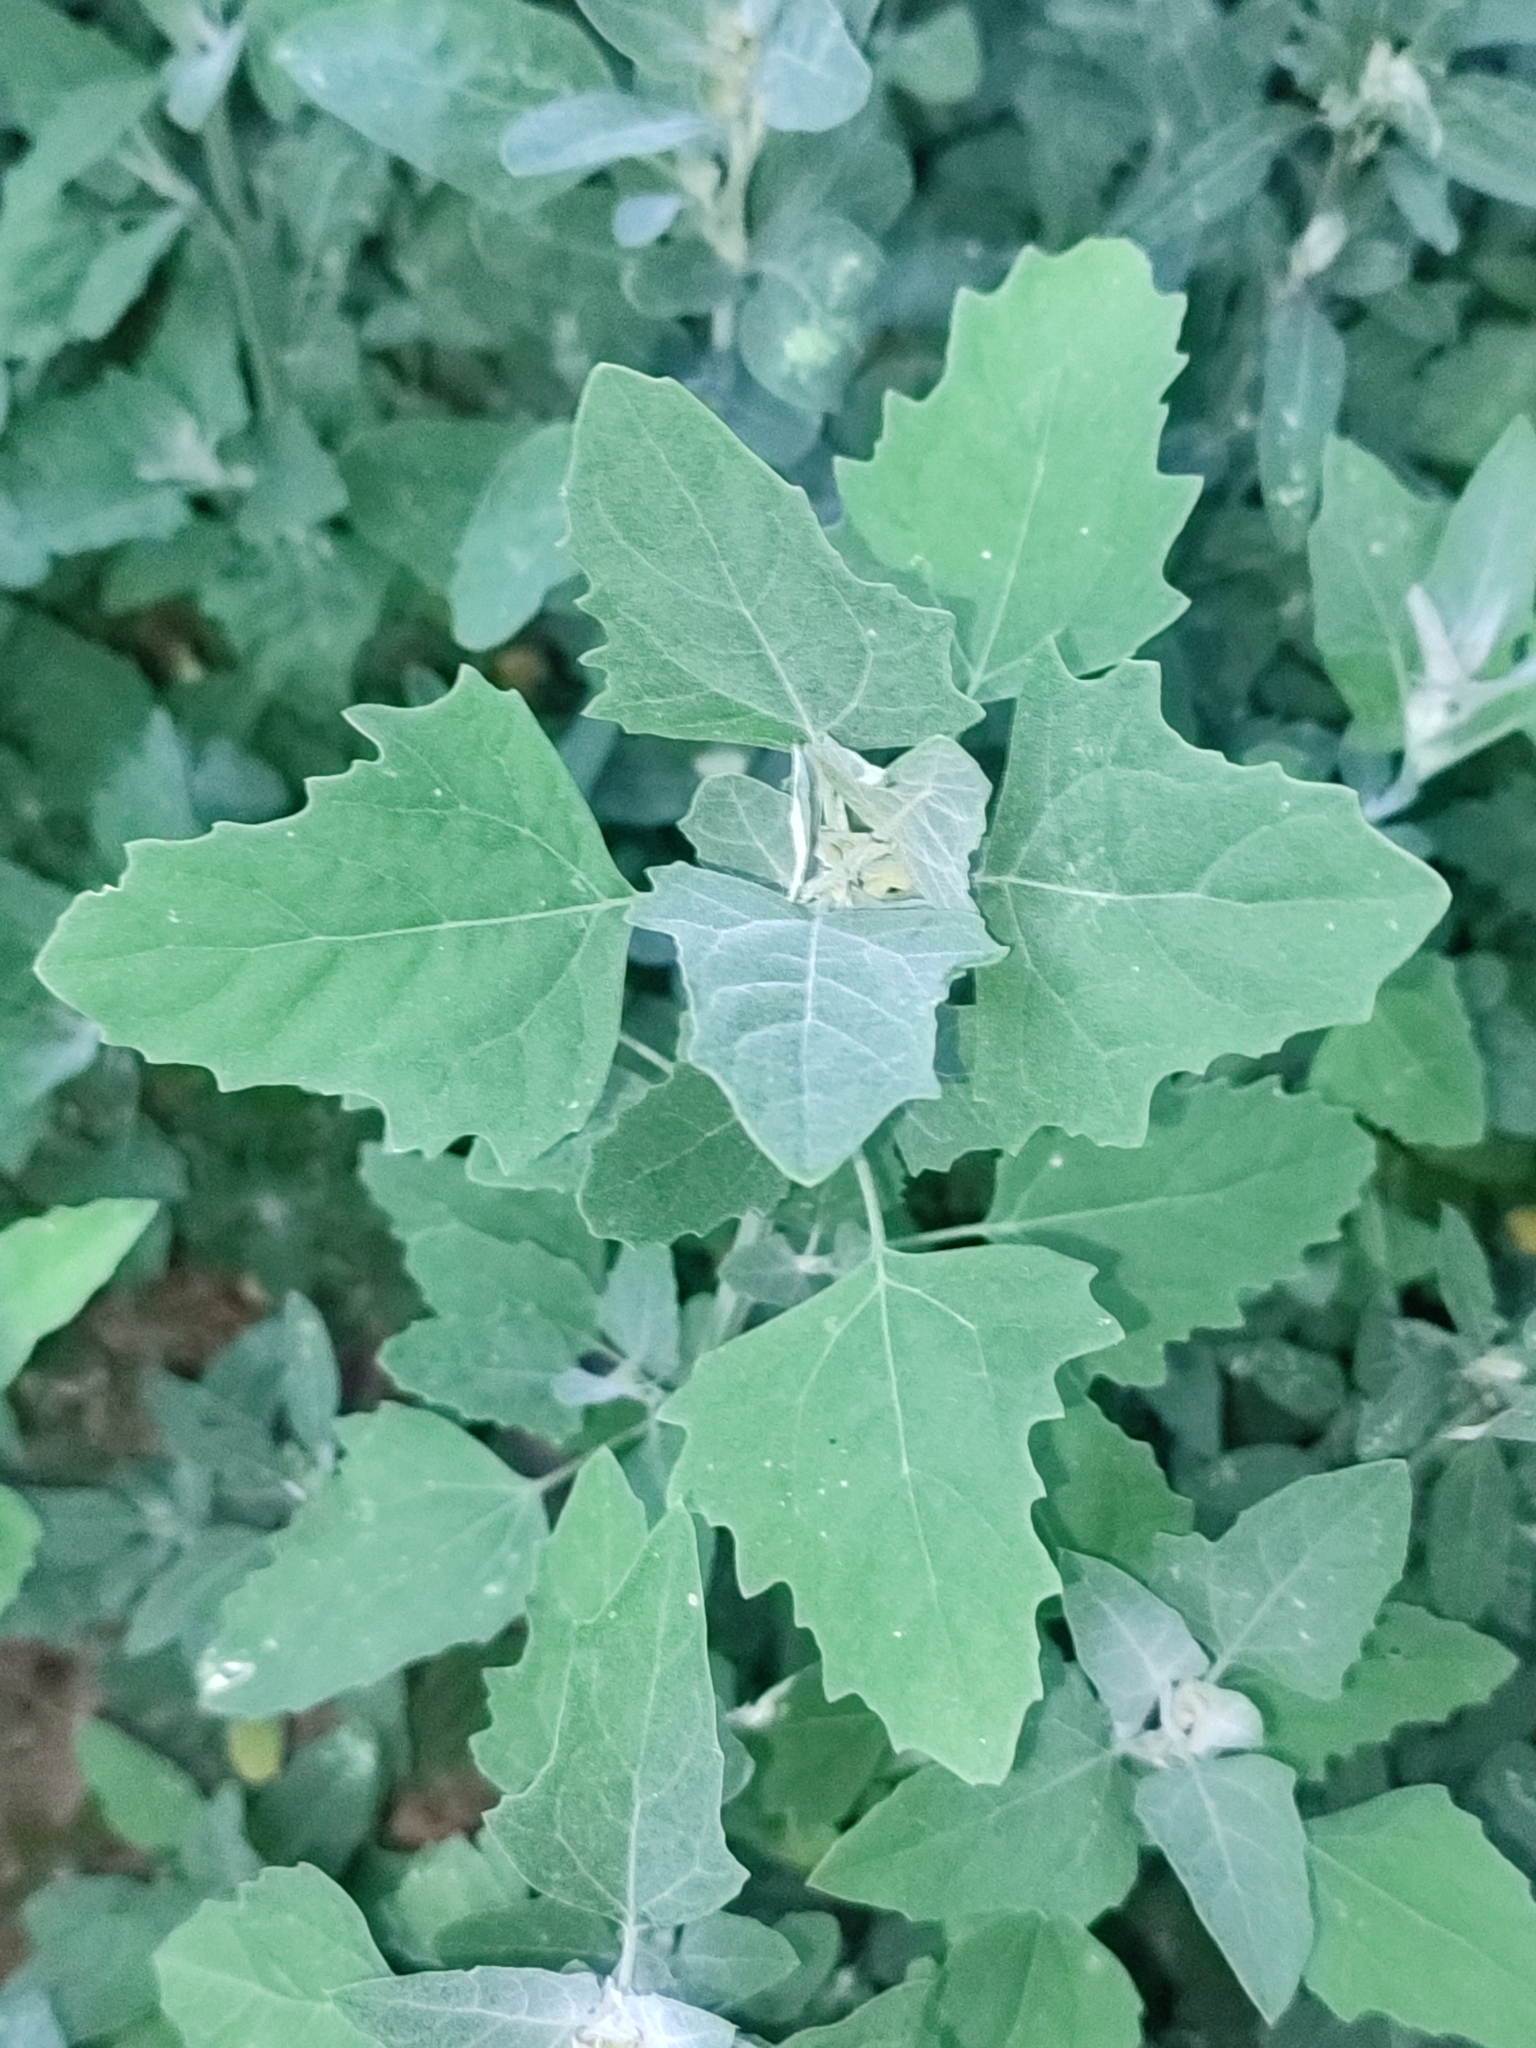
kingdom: Plantae
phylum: Tracheophyta
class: Magnoliopsida
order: Caryophyllales
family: Amaranthaceae
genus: Chenopodium
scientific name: Chenopodium album
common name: Fat-hen
